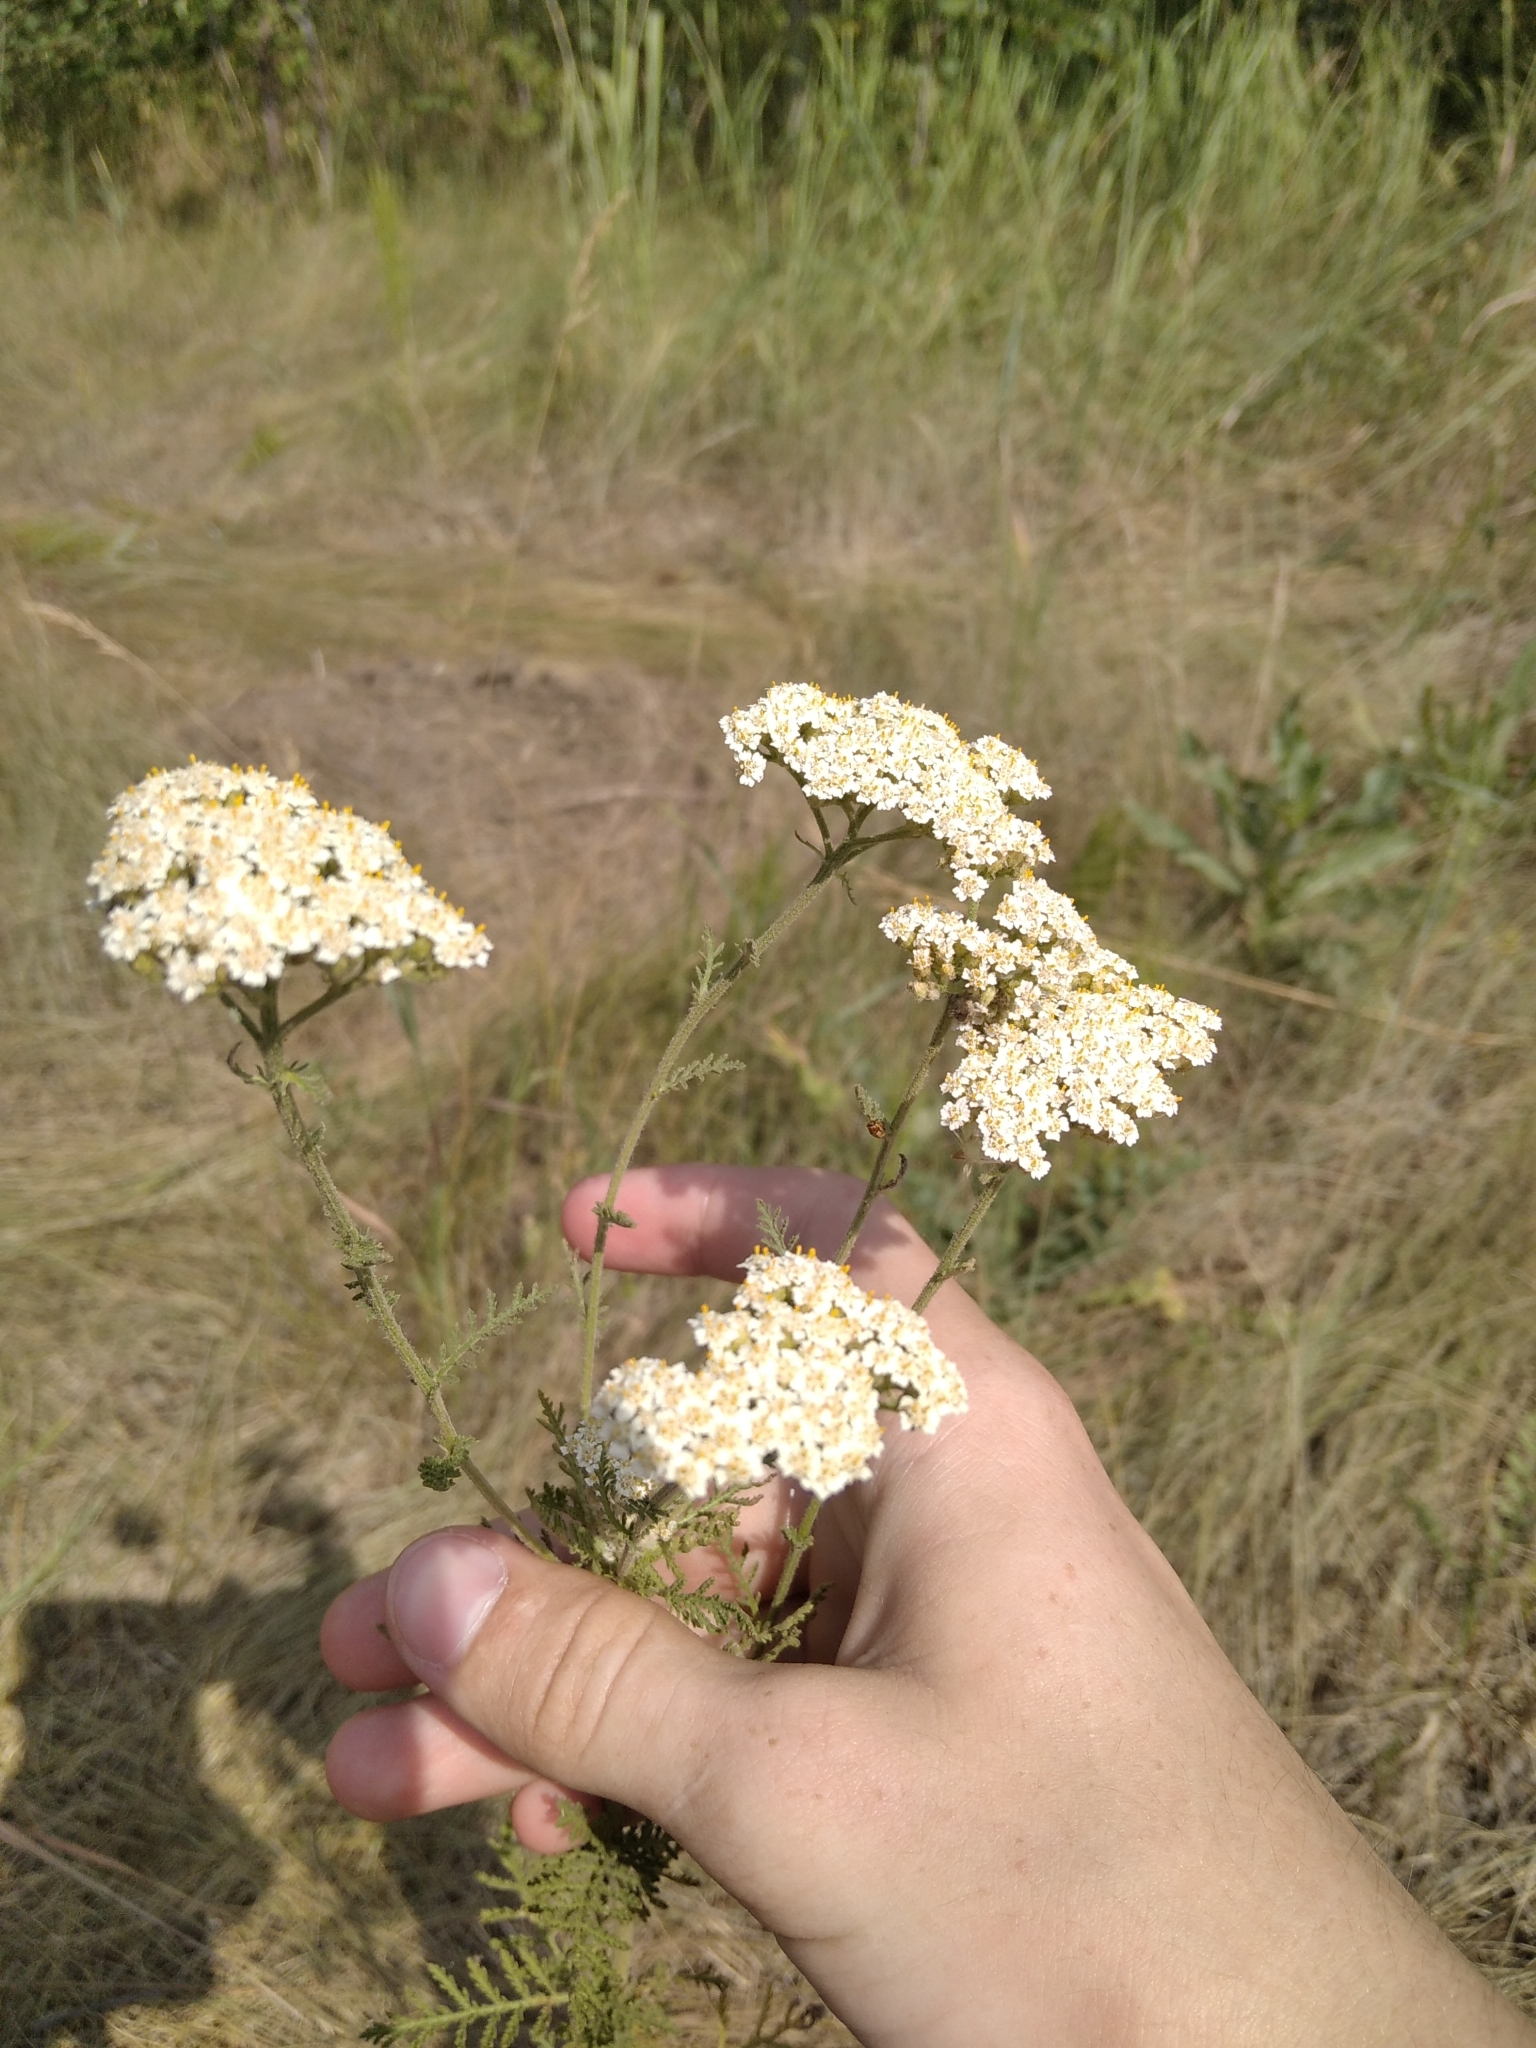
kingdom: Plantae
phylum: Tracheophyta
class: Magnoliopsida
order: Asterales
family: Asteraceae
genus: Achillea
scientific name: Achillea nobilis
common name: Noble yarrow
